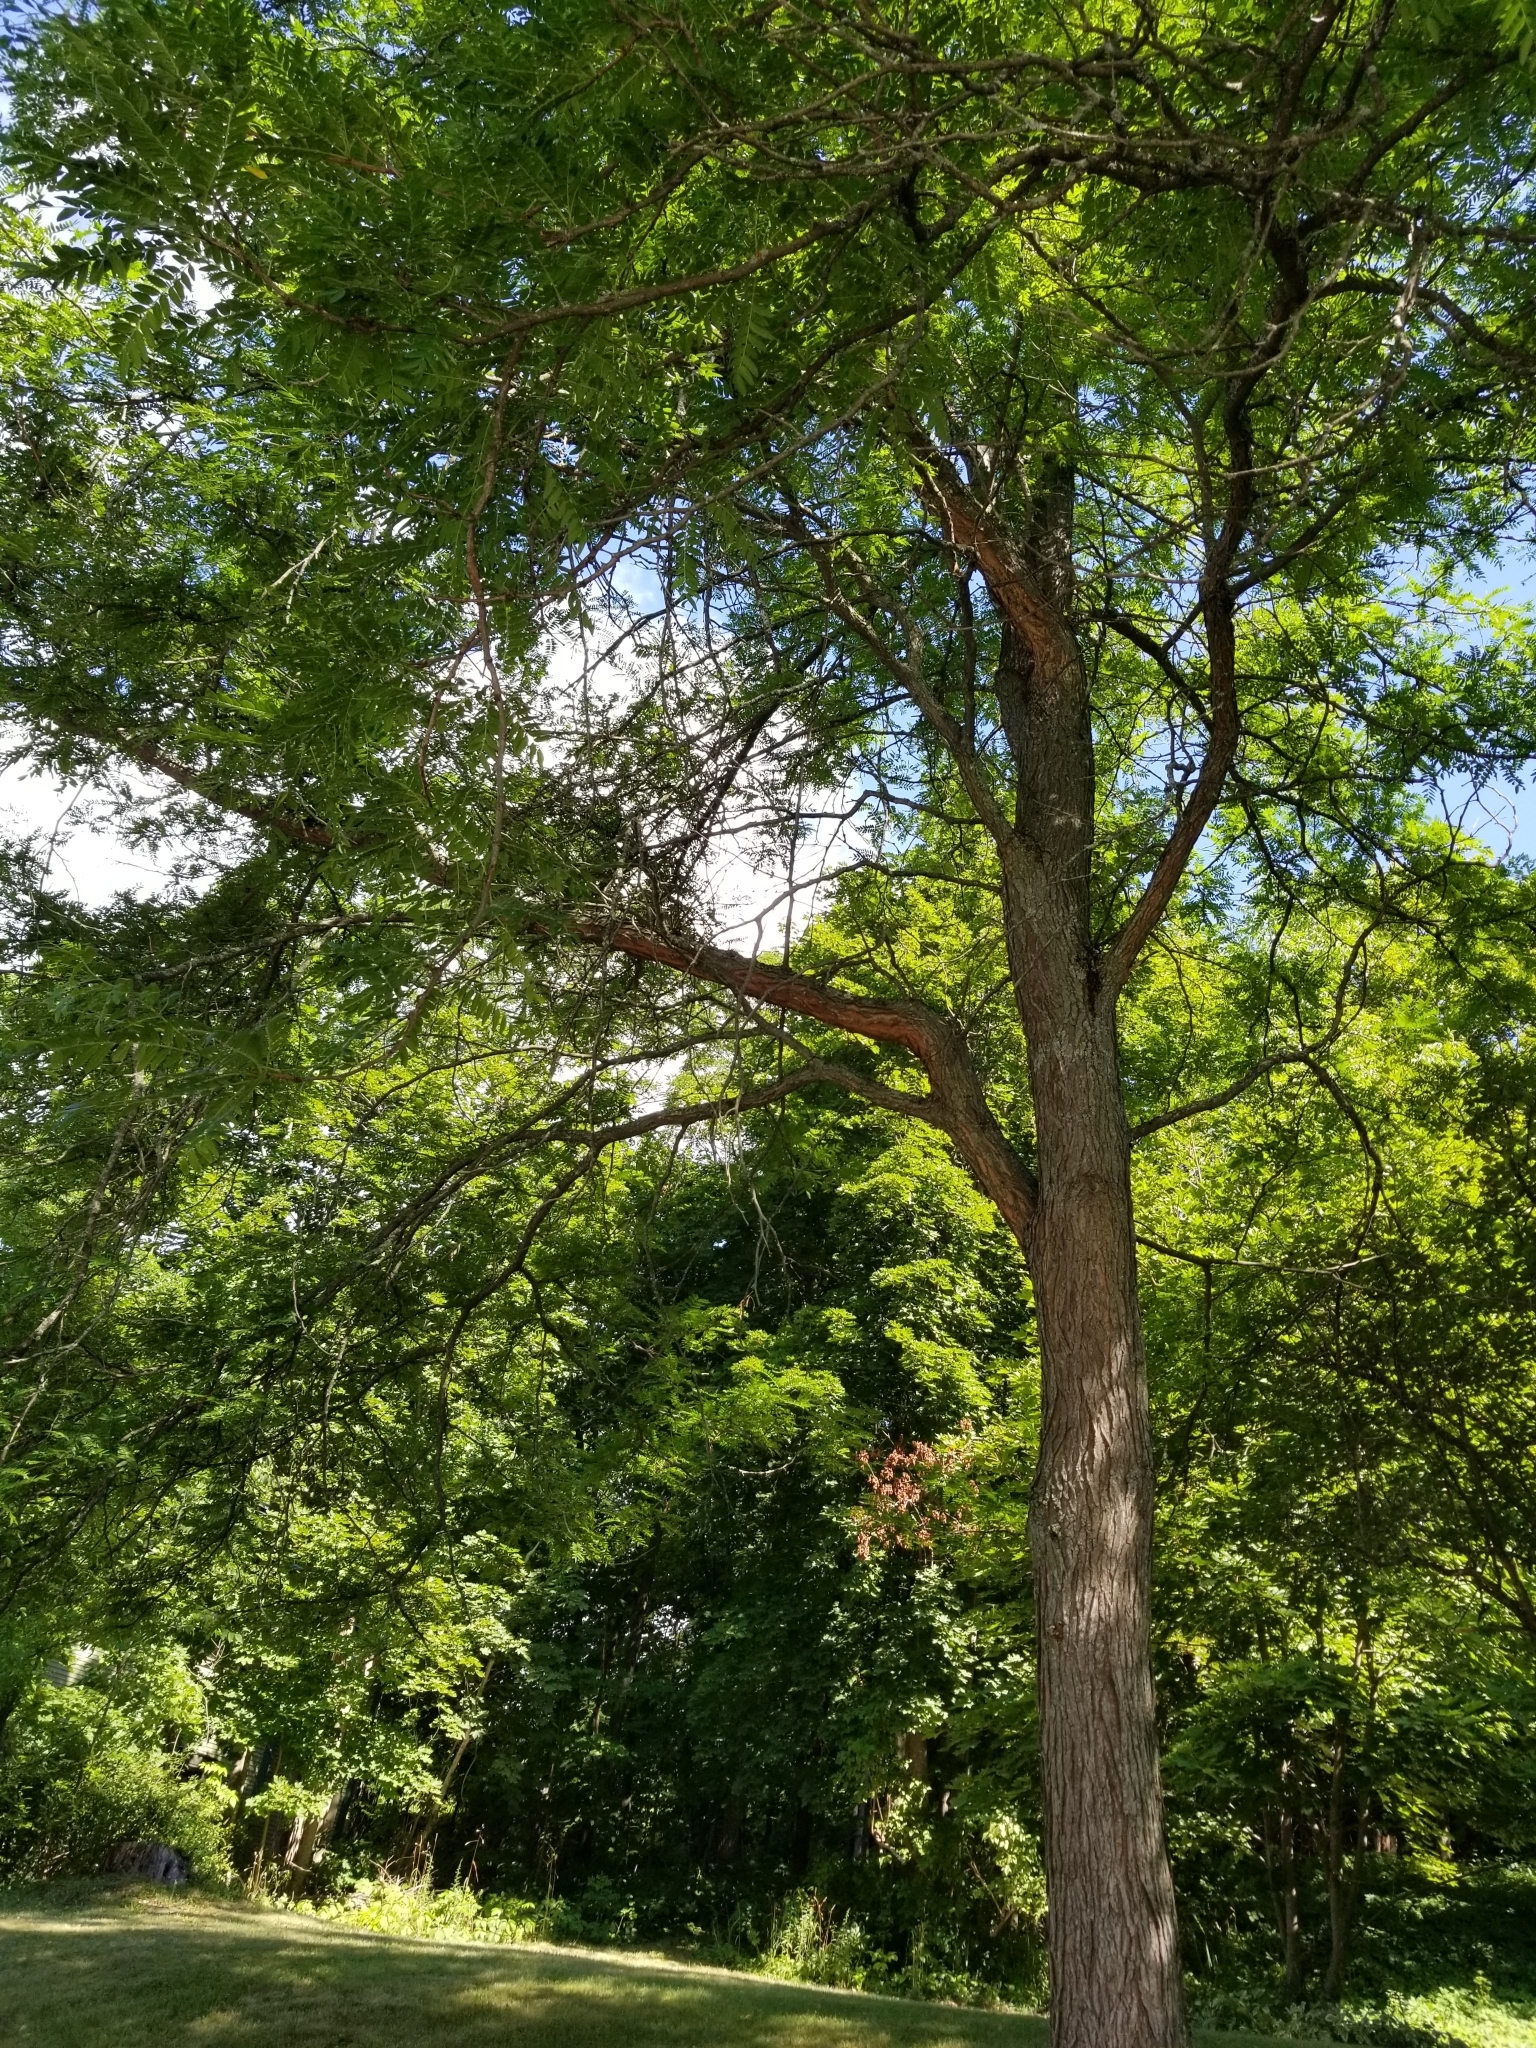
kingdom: Plantae
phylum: Tracheophyta
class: Magnoliopsida
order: Fabales
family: Fabaceae
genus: Gleditsia
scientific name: Gleditsia triacanthos
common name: Common honeylocust
